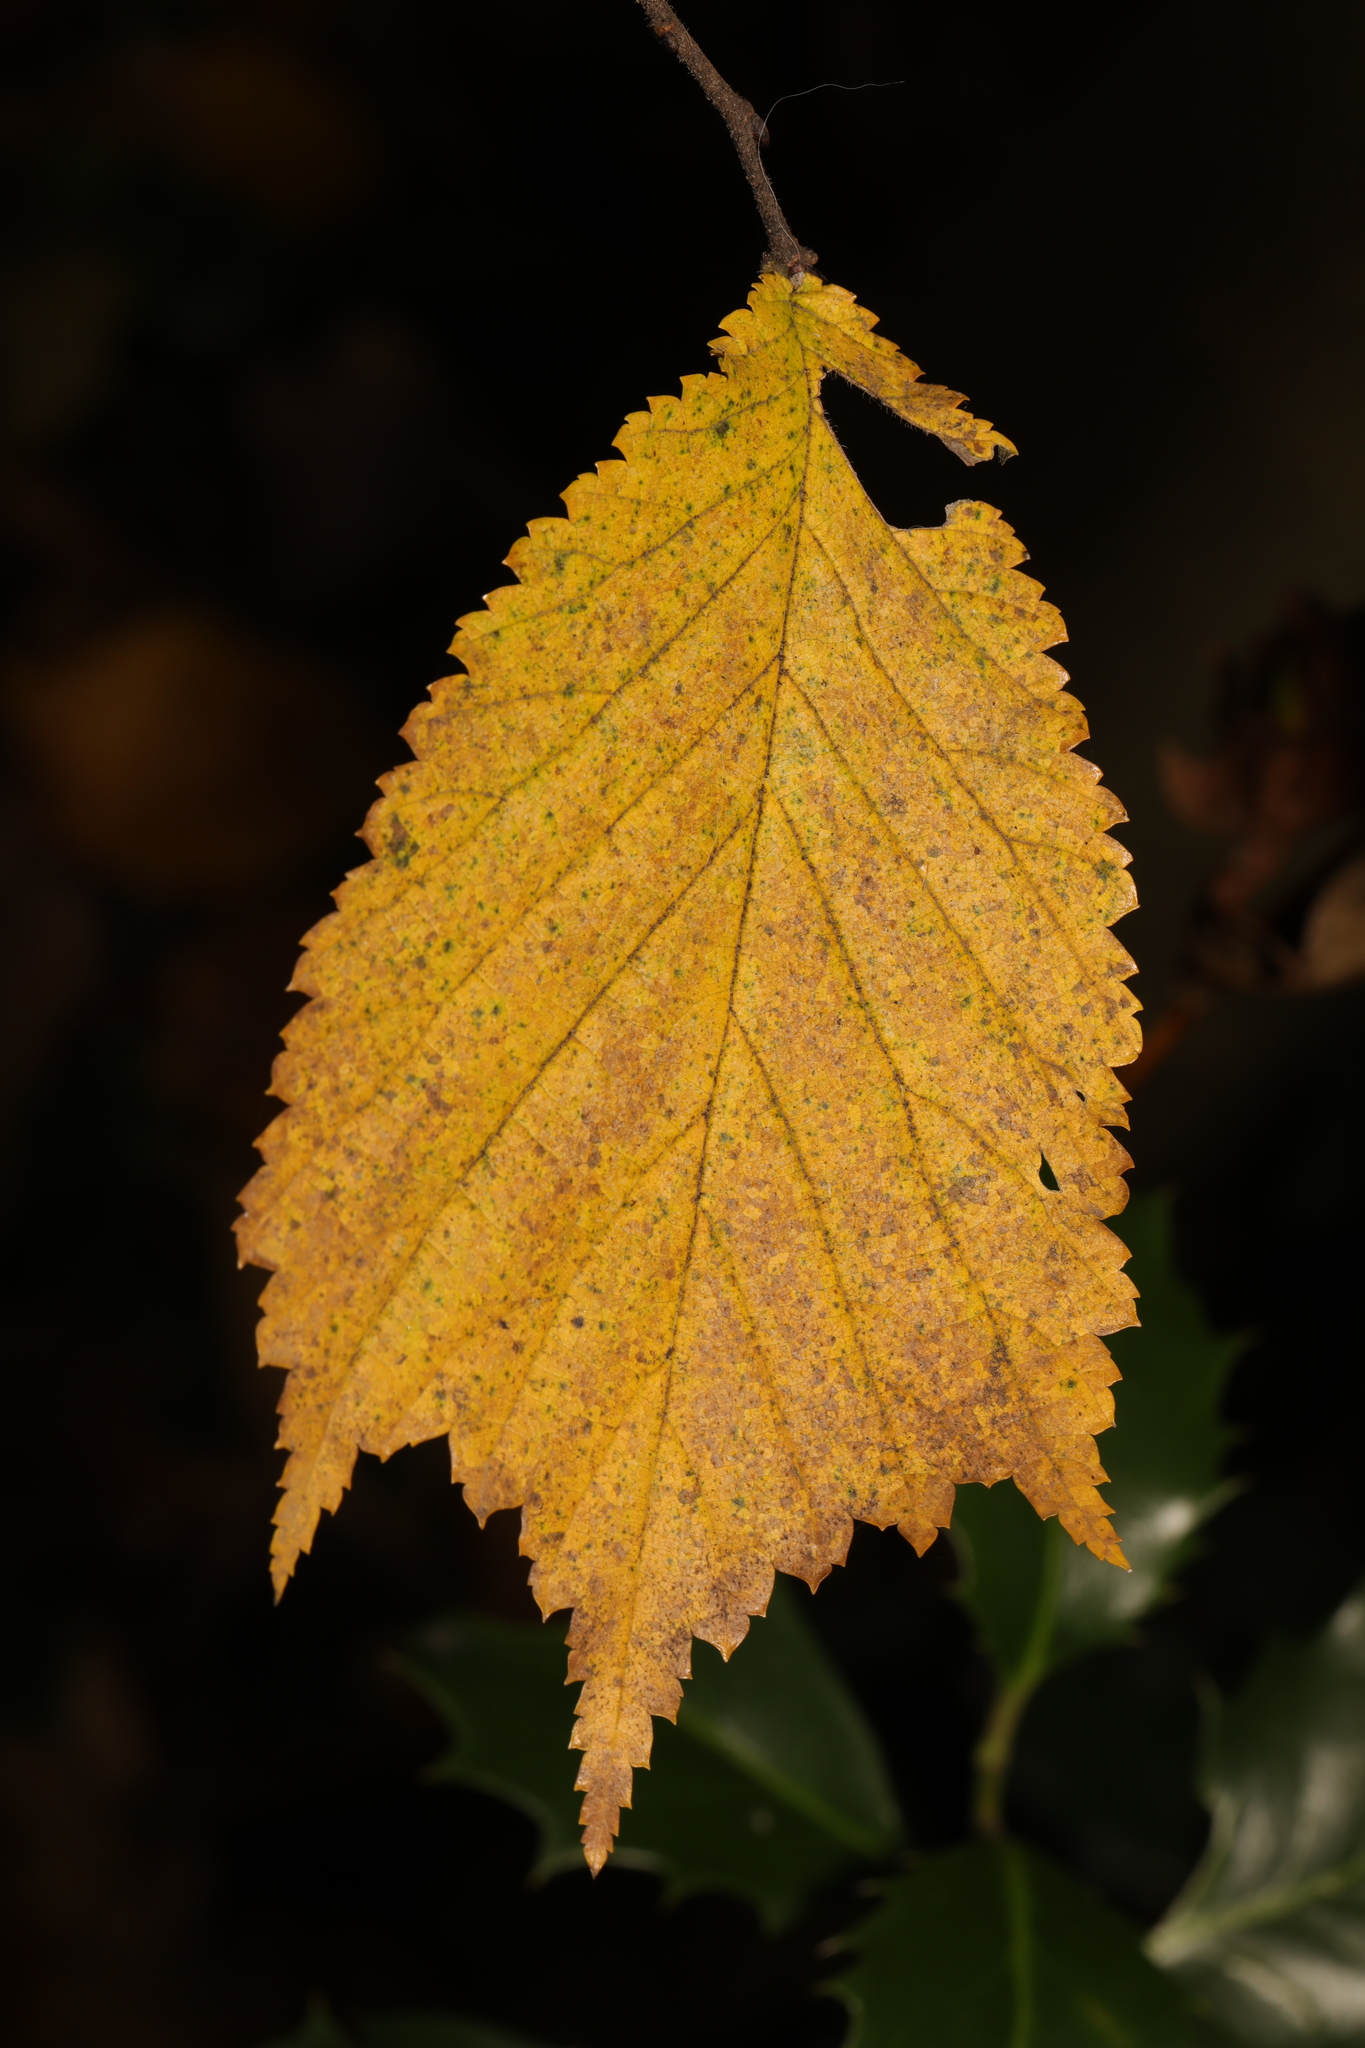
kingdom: Plantae
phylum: Tracheophyta
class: Magnoliopsida
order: Rosales
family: Ulmaceae
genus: Ulmus
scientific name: Ulmus glabra
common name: Wych elm
